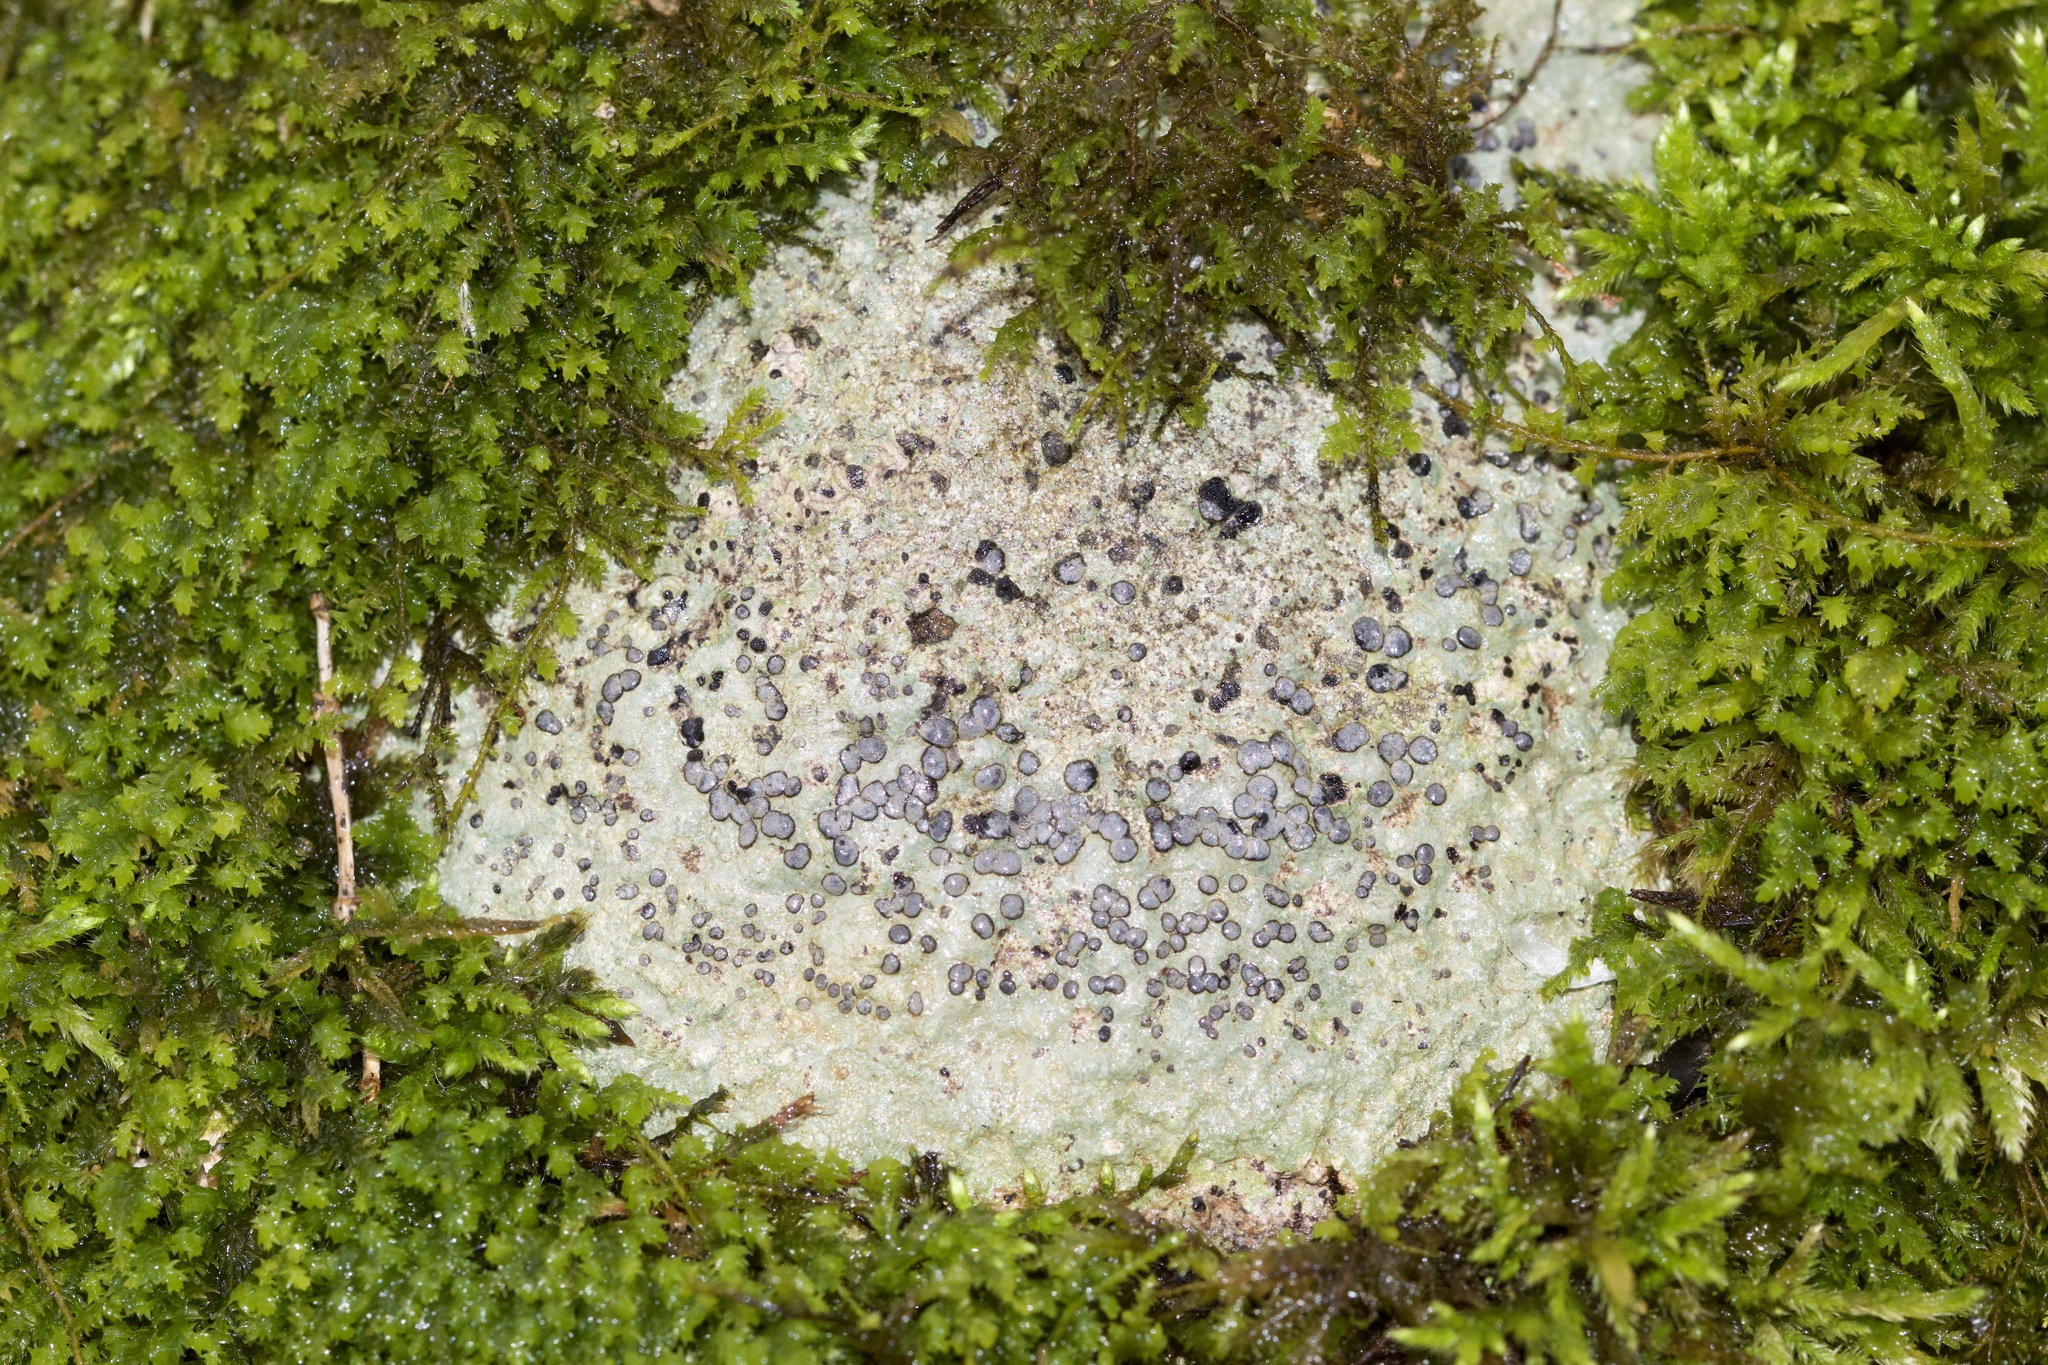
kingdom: Fungi
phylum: Ascomycota
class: Lecanoromycetes
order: Lecideales
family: Lecideaceae
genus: Porpidia
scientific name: Porpidia albocaerulescens
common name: Smokey-eyed boulder lichen
